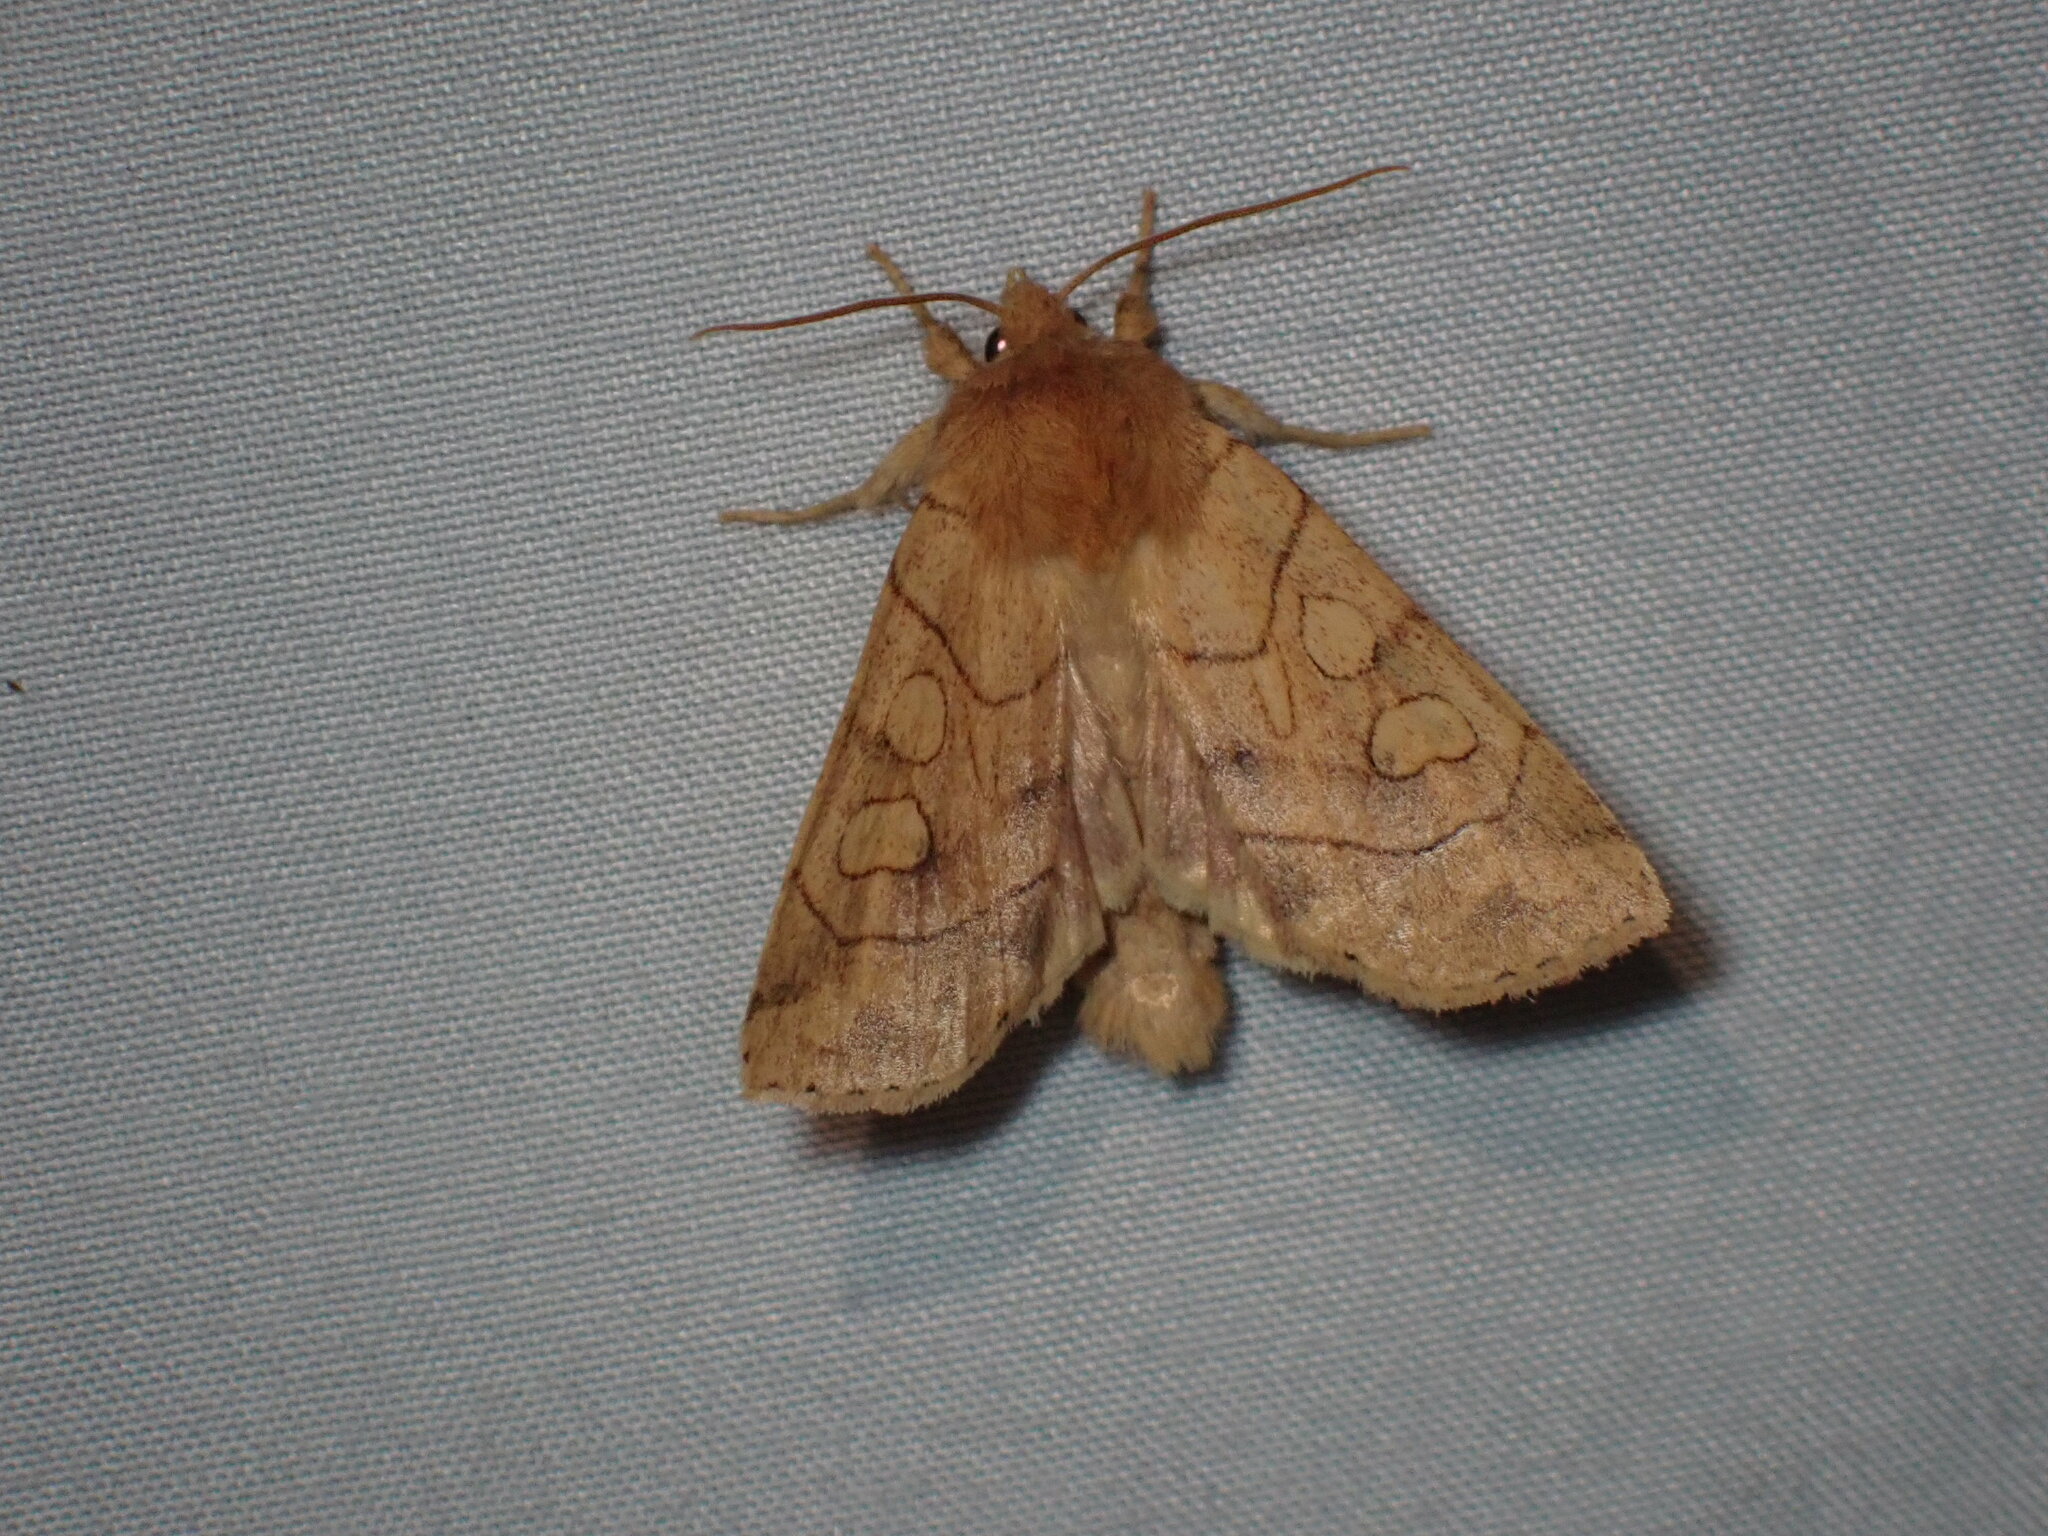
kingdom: Animalia
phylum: Arthropoda
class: Insecta
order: Lepidoptera
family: Noctuidae
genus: Enargia
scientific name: Enargia decolor
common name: Aspen twoleaf tier moth
